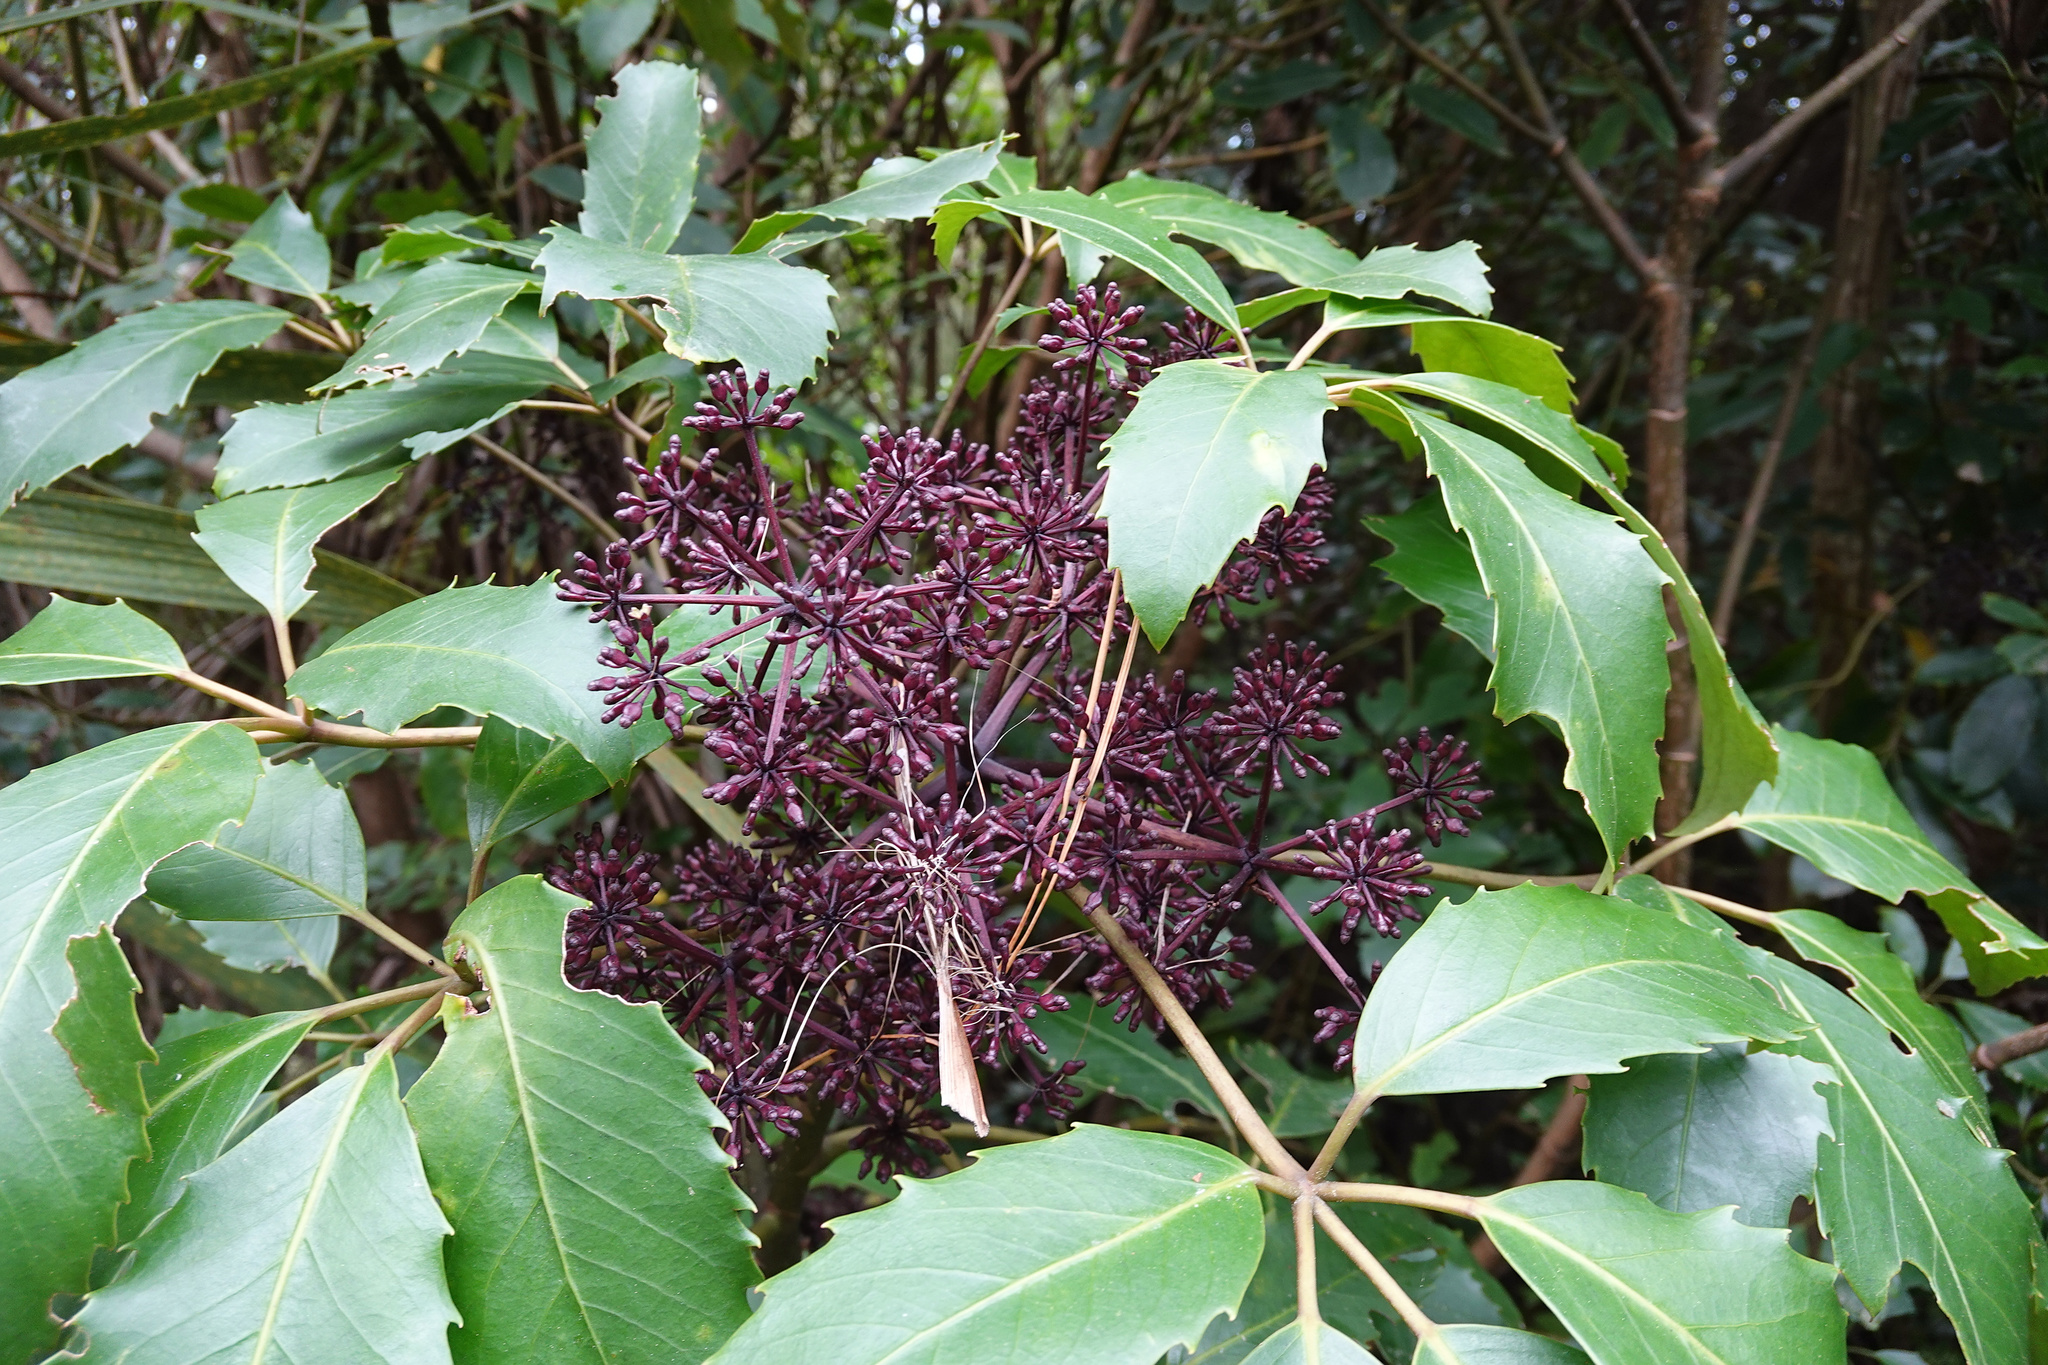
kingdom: Plantae
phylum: Tracheophyta
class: Magnoliopsida
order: Apiales
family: Araliaceae
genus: Neopanax
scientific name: Neopanax arboreus
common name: Five-fingers
